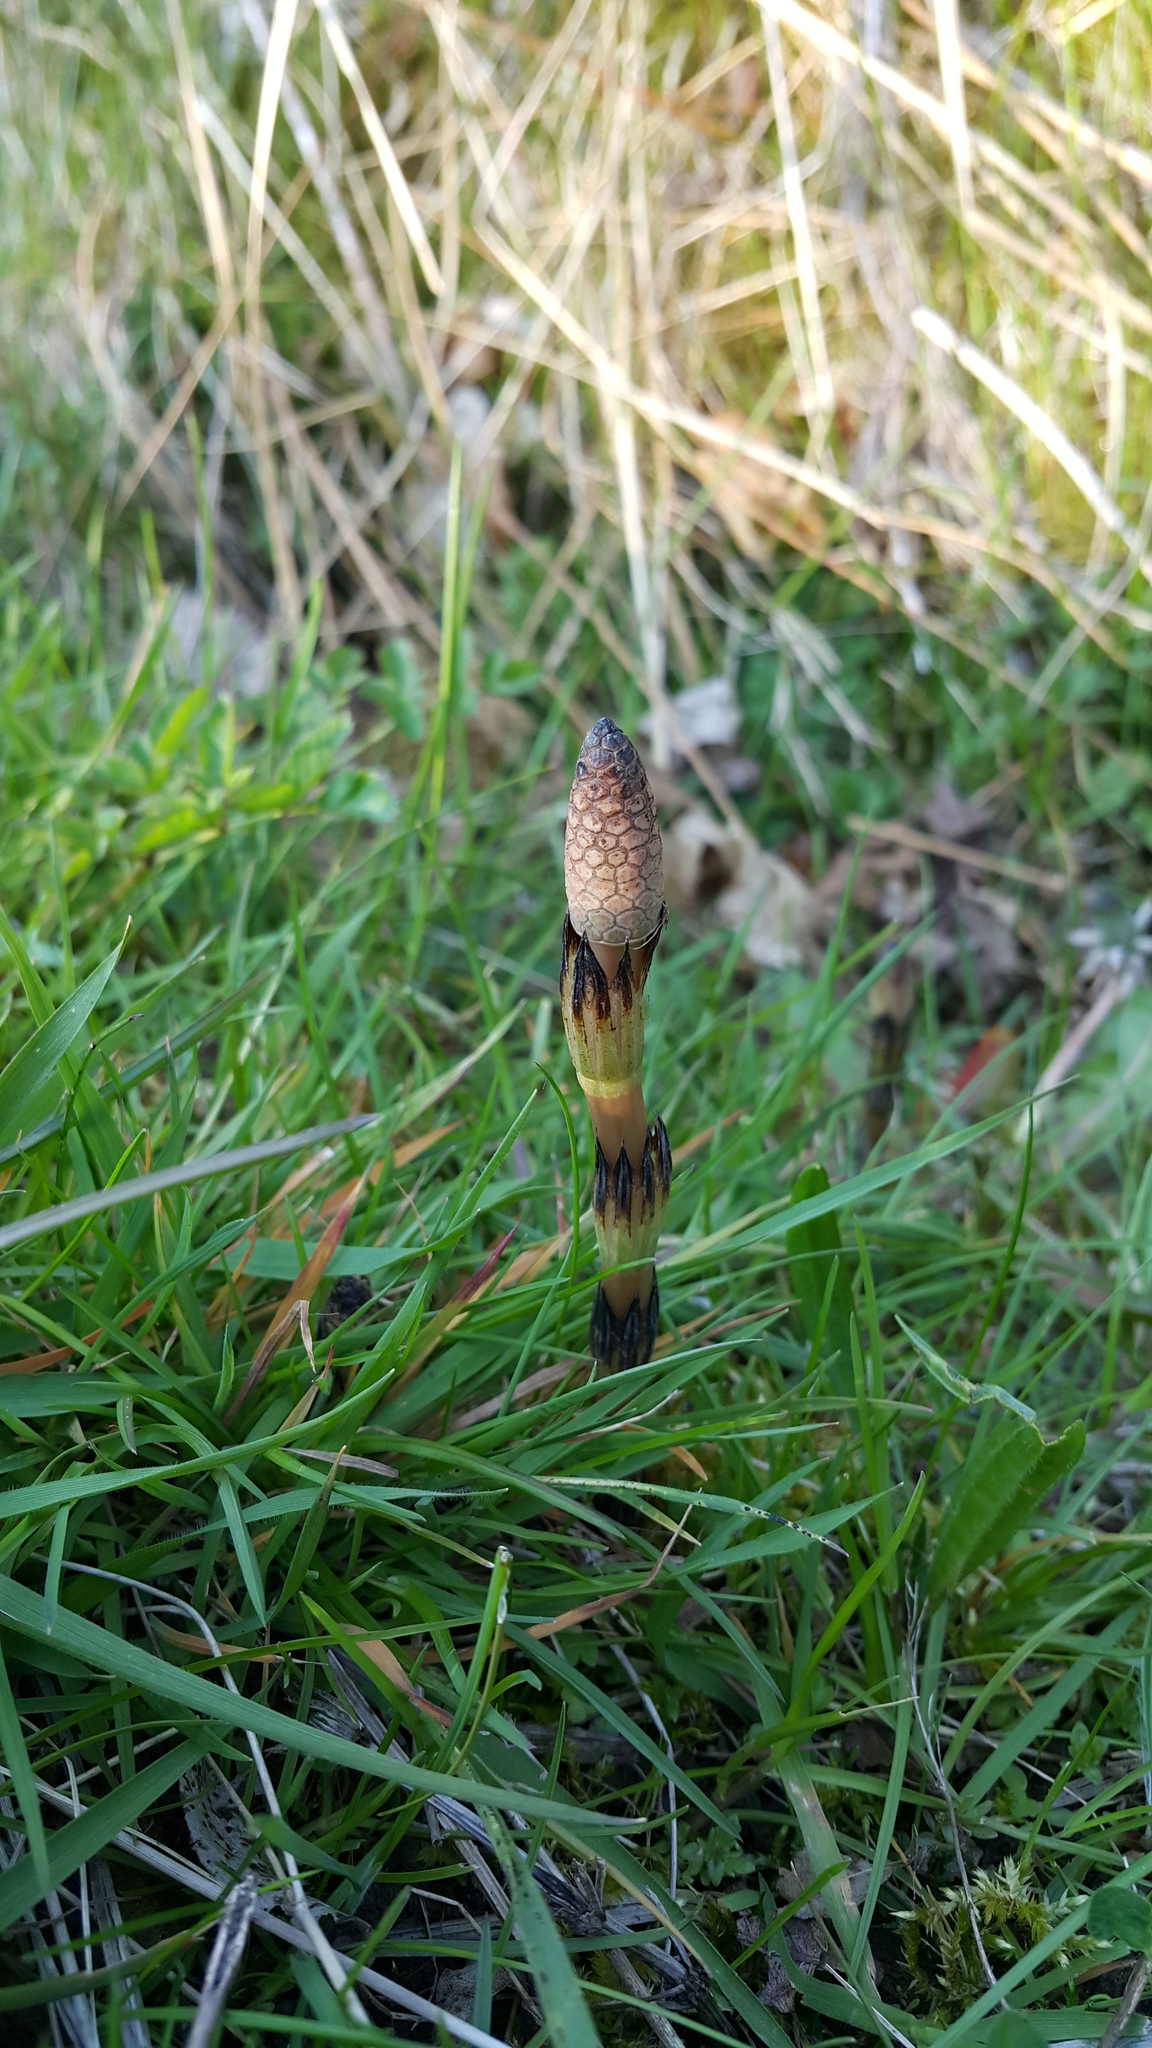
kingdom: Plantae
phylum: Tracheophyta
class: Polypodiopsida
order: Equisetales
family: Equisetaceae
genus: Equisetum
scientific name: Equisetum arvense
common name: Field horsetail
